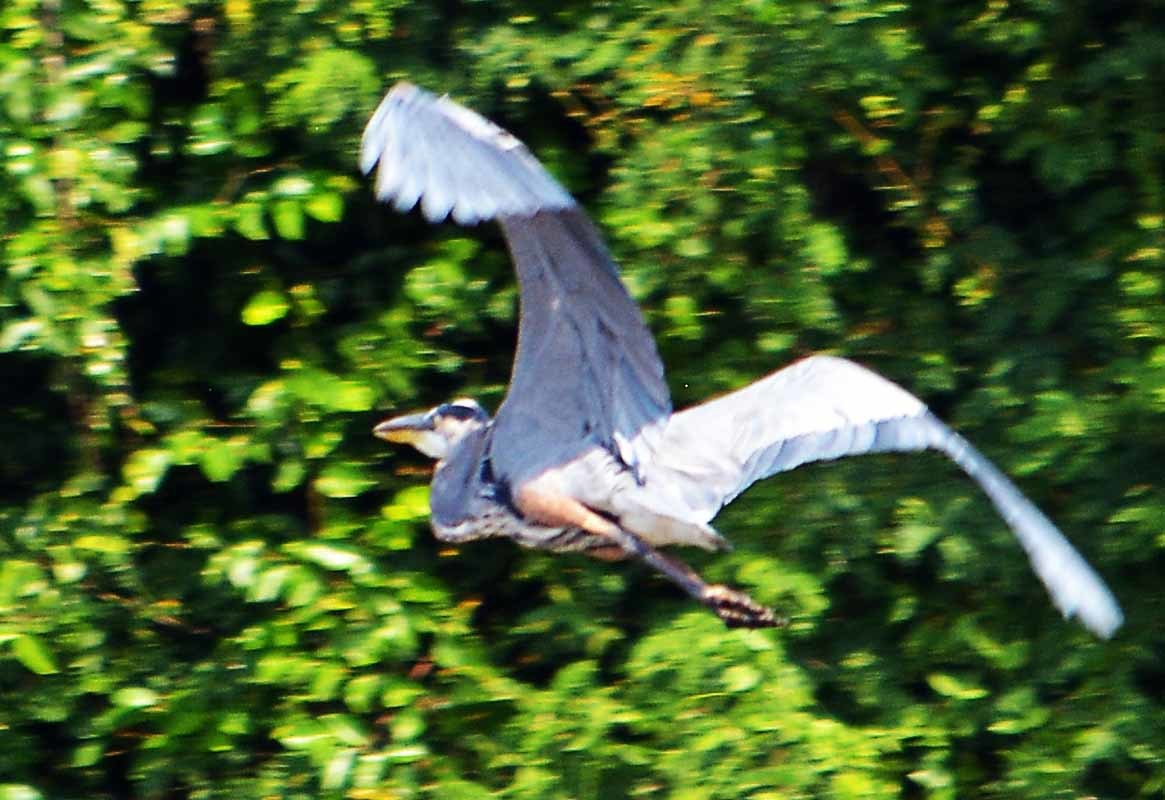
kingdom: Animalia
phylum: Chordata
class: Aves
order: Pelecaniformes
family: Ardeidae
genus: Ardea
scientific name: Ardea herodias
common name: Great blue heron
